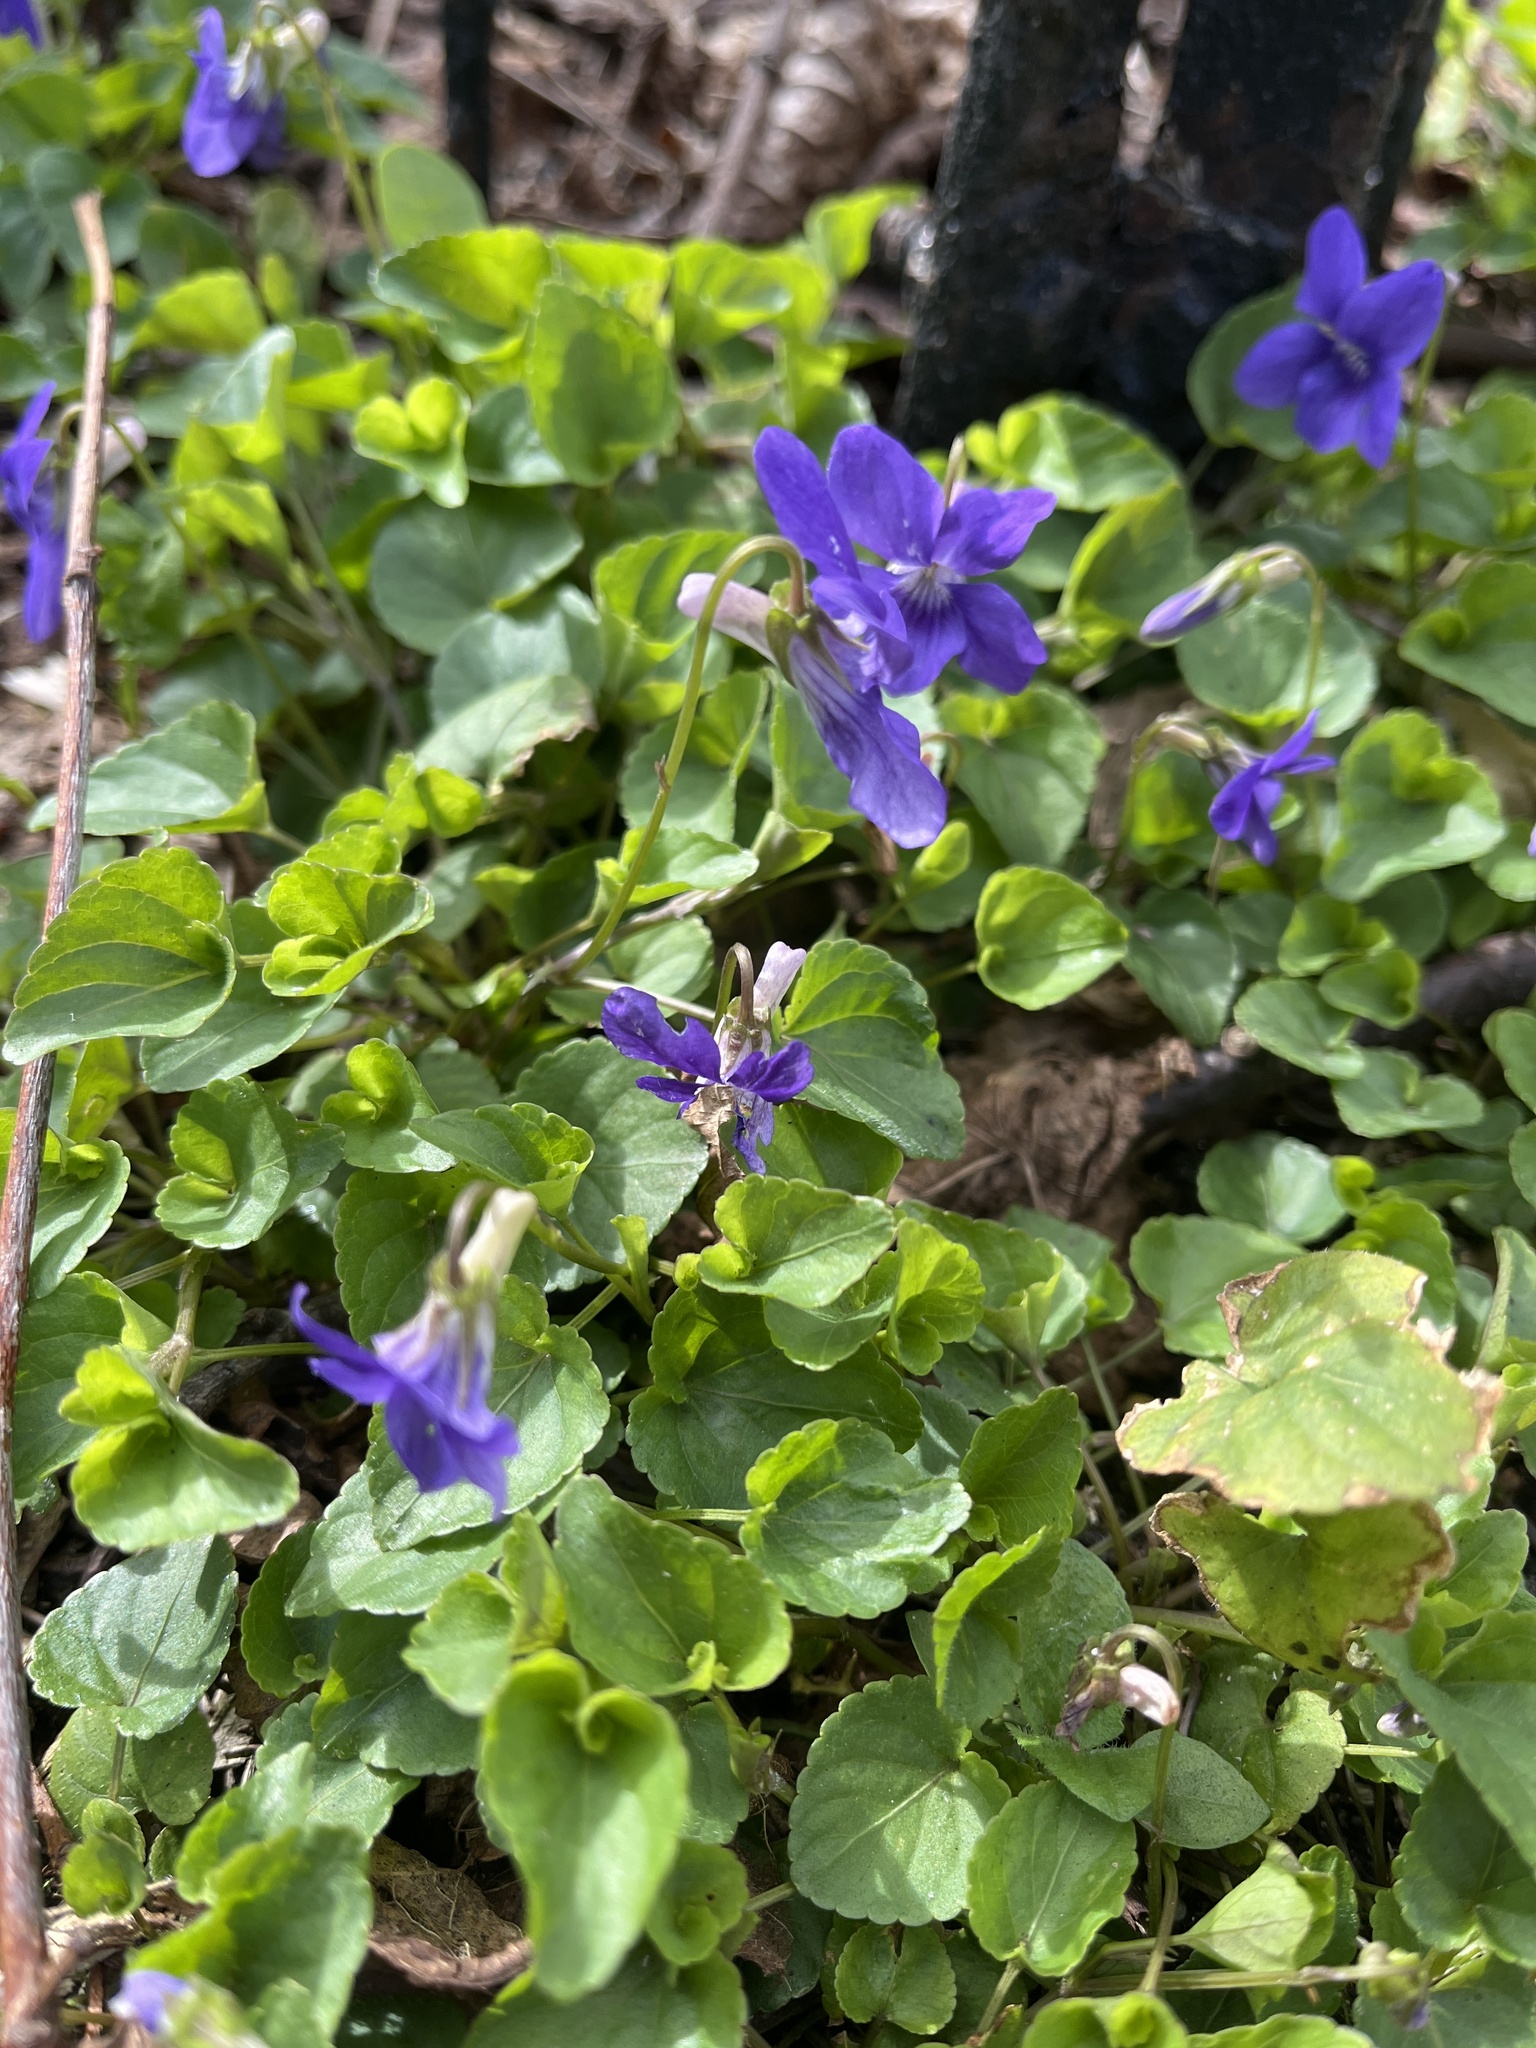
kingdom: Plantae
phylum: Tracheophyta
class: Magnoliopsida
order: Malpighiales
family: Violaceae
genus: Viola
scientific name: Viola riviniana
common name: Common dog-violet
